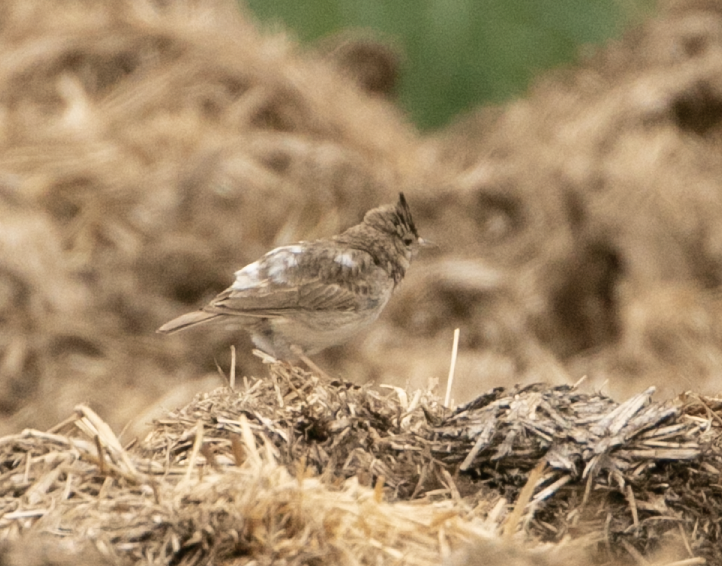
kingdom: Animalia
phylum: Chordata
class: Aves
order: Passeriformes
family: Alaudidae
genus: Galerida
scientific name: Galerida cristata
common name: Crested lark
